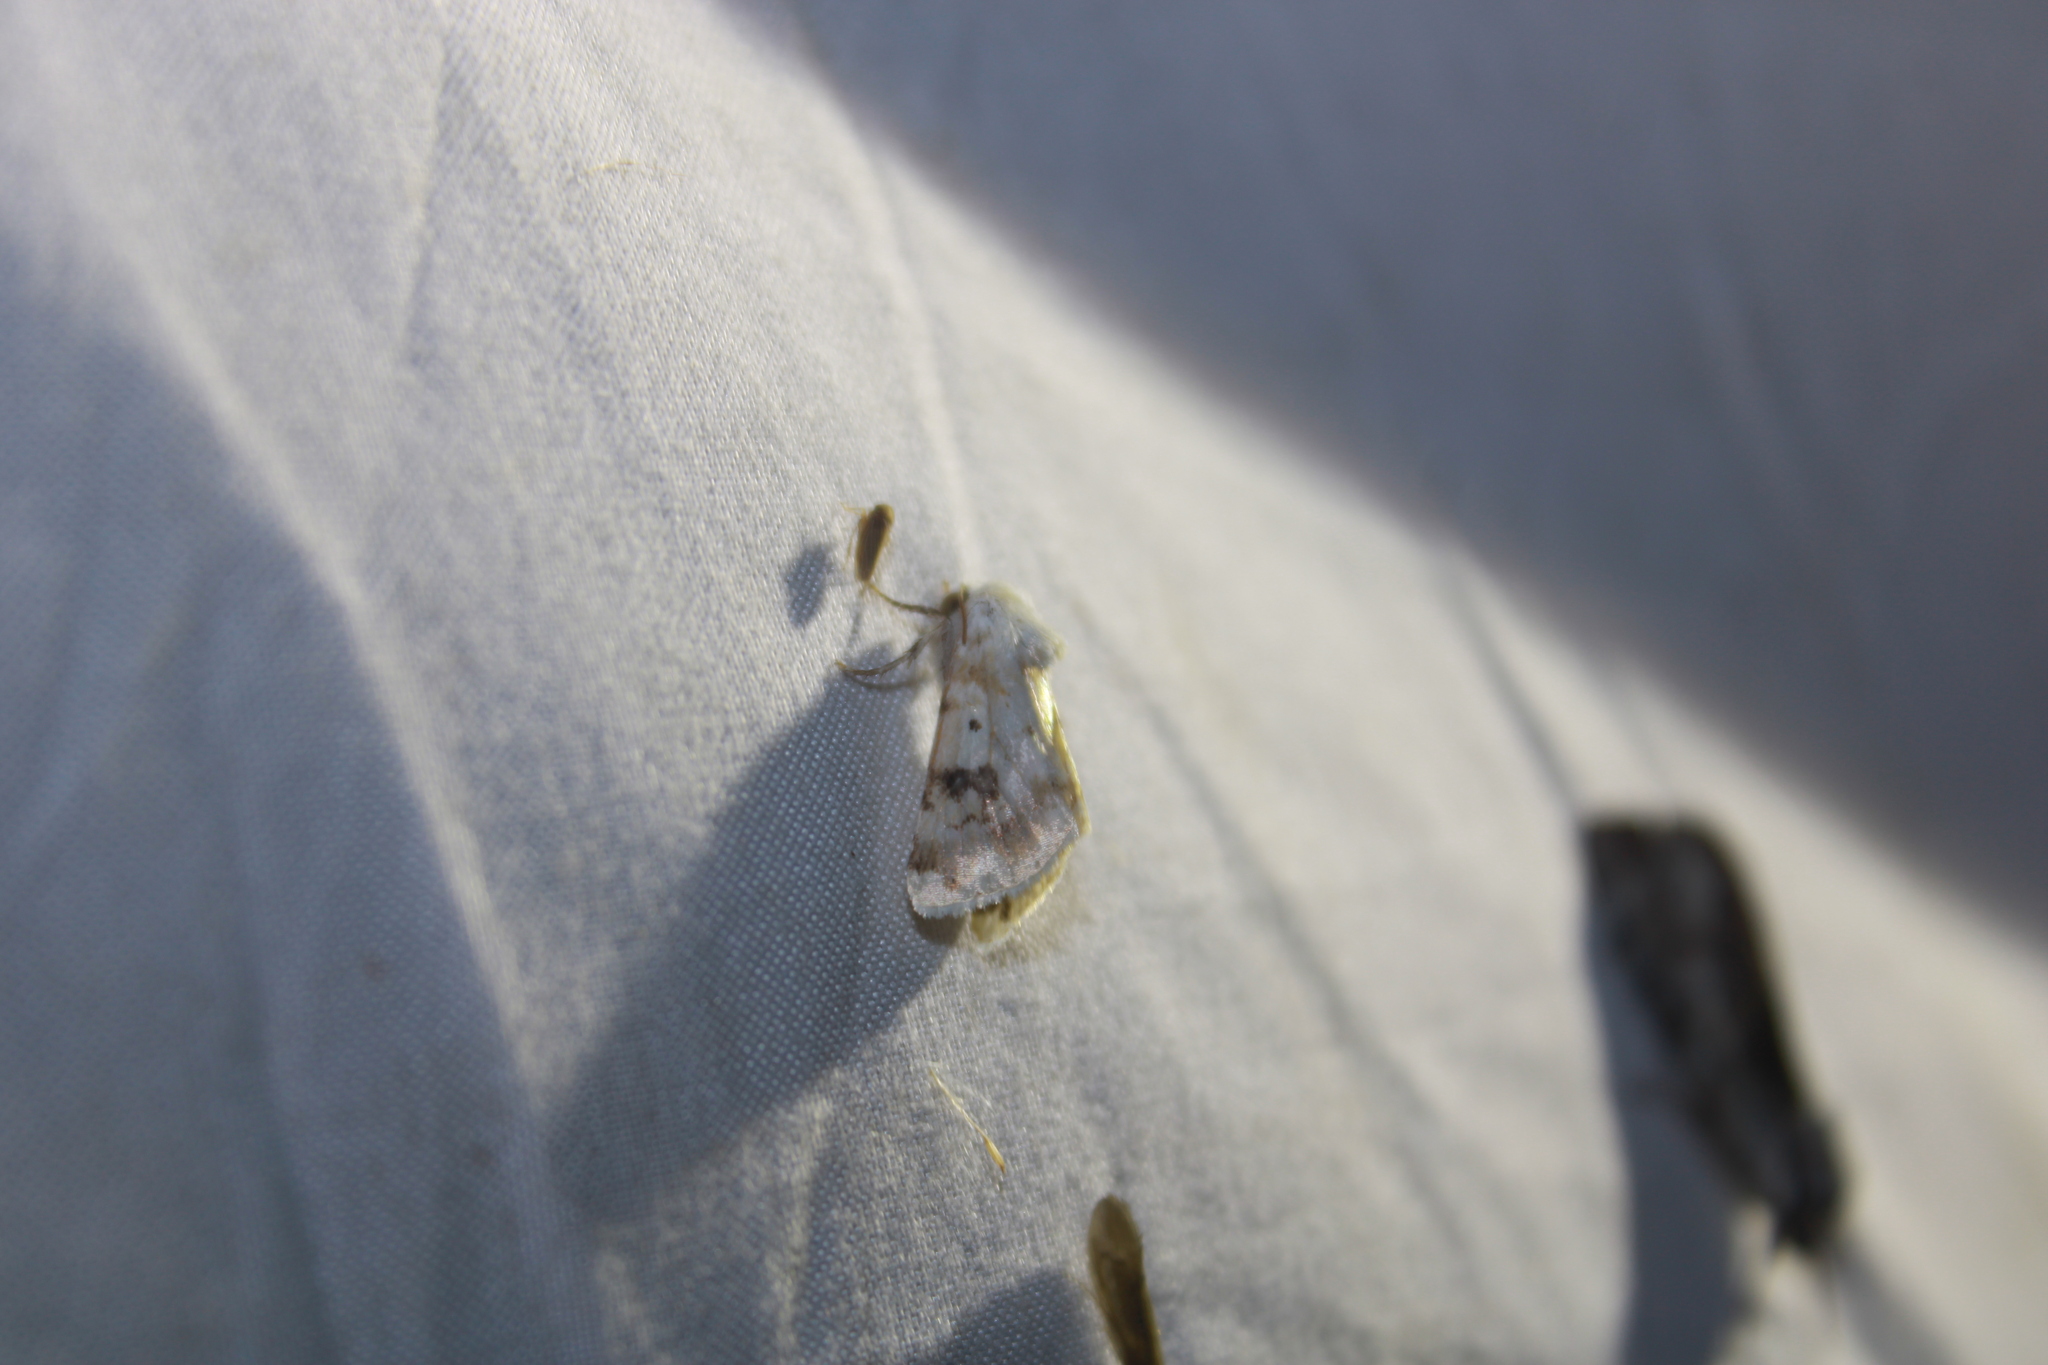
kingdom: Animalia
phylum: Arthropoda
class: Insecta
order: Lepidoptera
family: Noctuidae
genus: Schinia
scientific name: Schinia nundina
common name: Goldenrod flower moth
